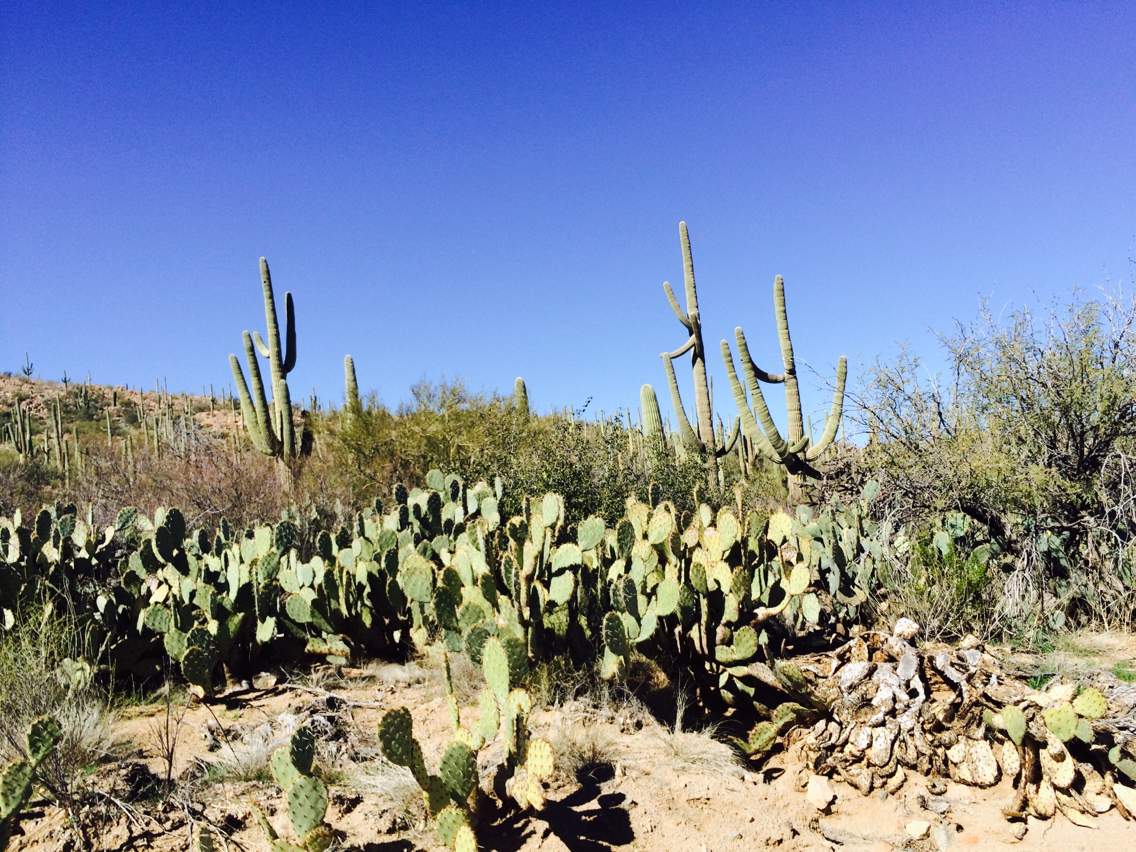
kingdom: Plantae
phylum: Tracheophyta
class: Magnoliopsida
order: Caryophyllales
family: Cactaceae
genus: Carnegiea
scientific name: Carnegiea gigantea
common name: Saguaro
